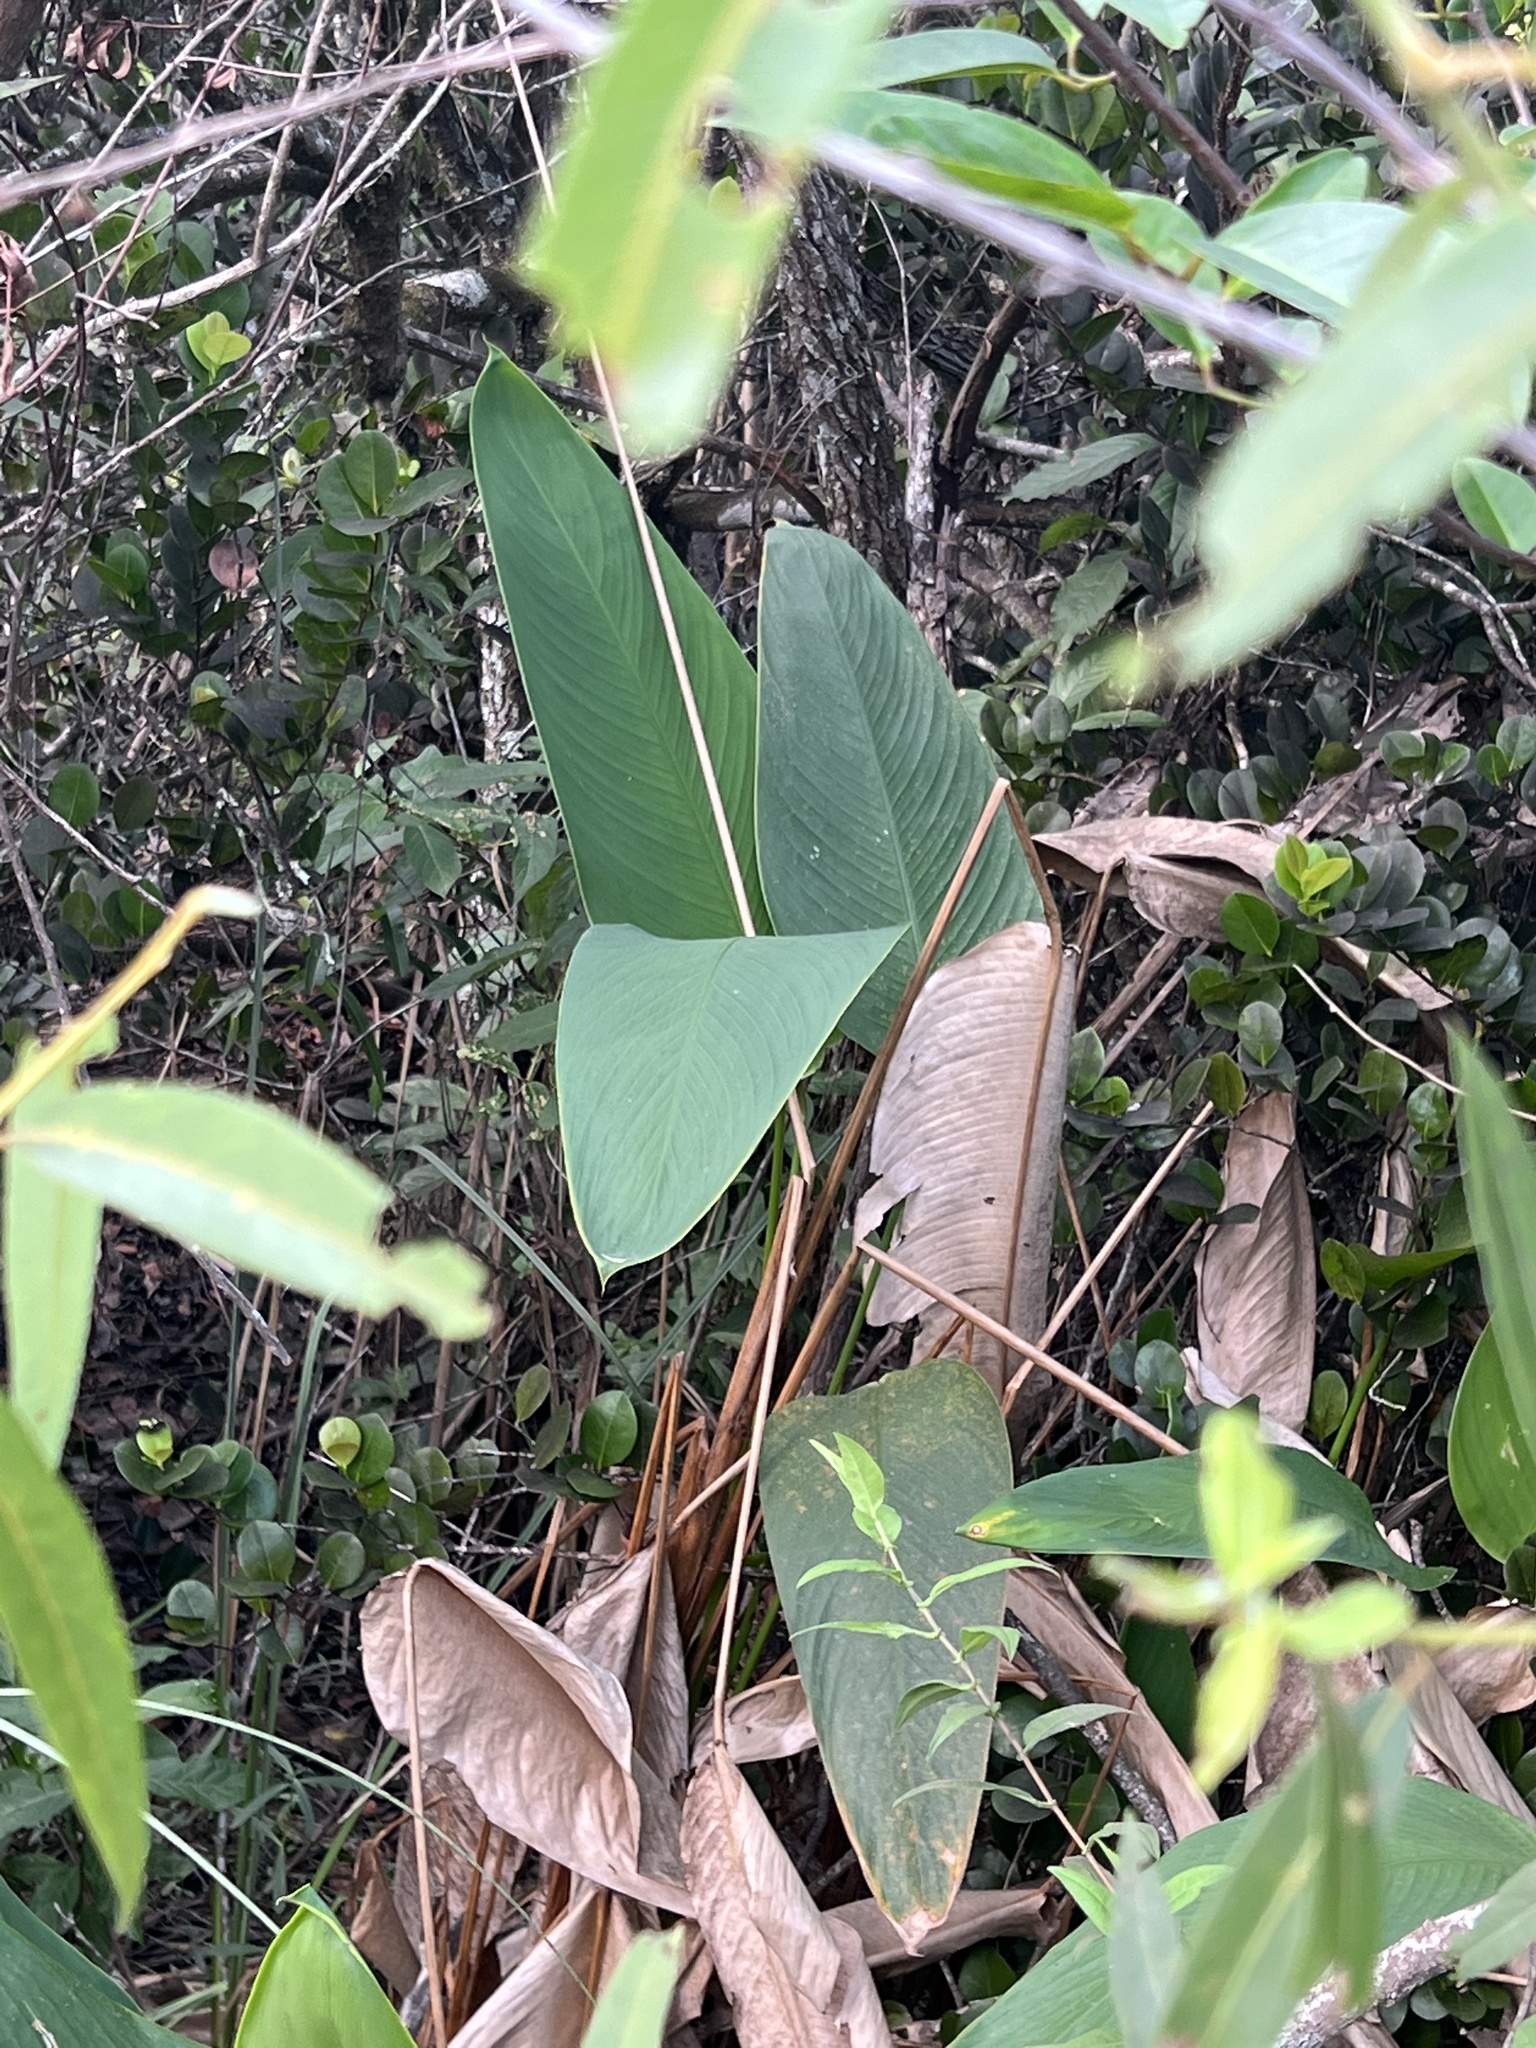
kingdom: Plantae
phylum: Tracheophyta
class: Liliopsida
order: Zingiberales
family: Marantaceae
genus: Thalia
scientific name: Thalia geniculata
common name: Arrowroot
